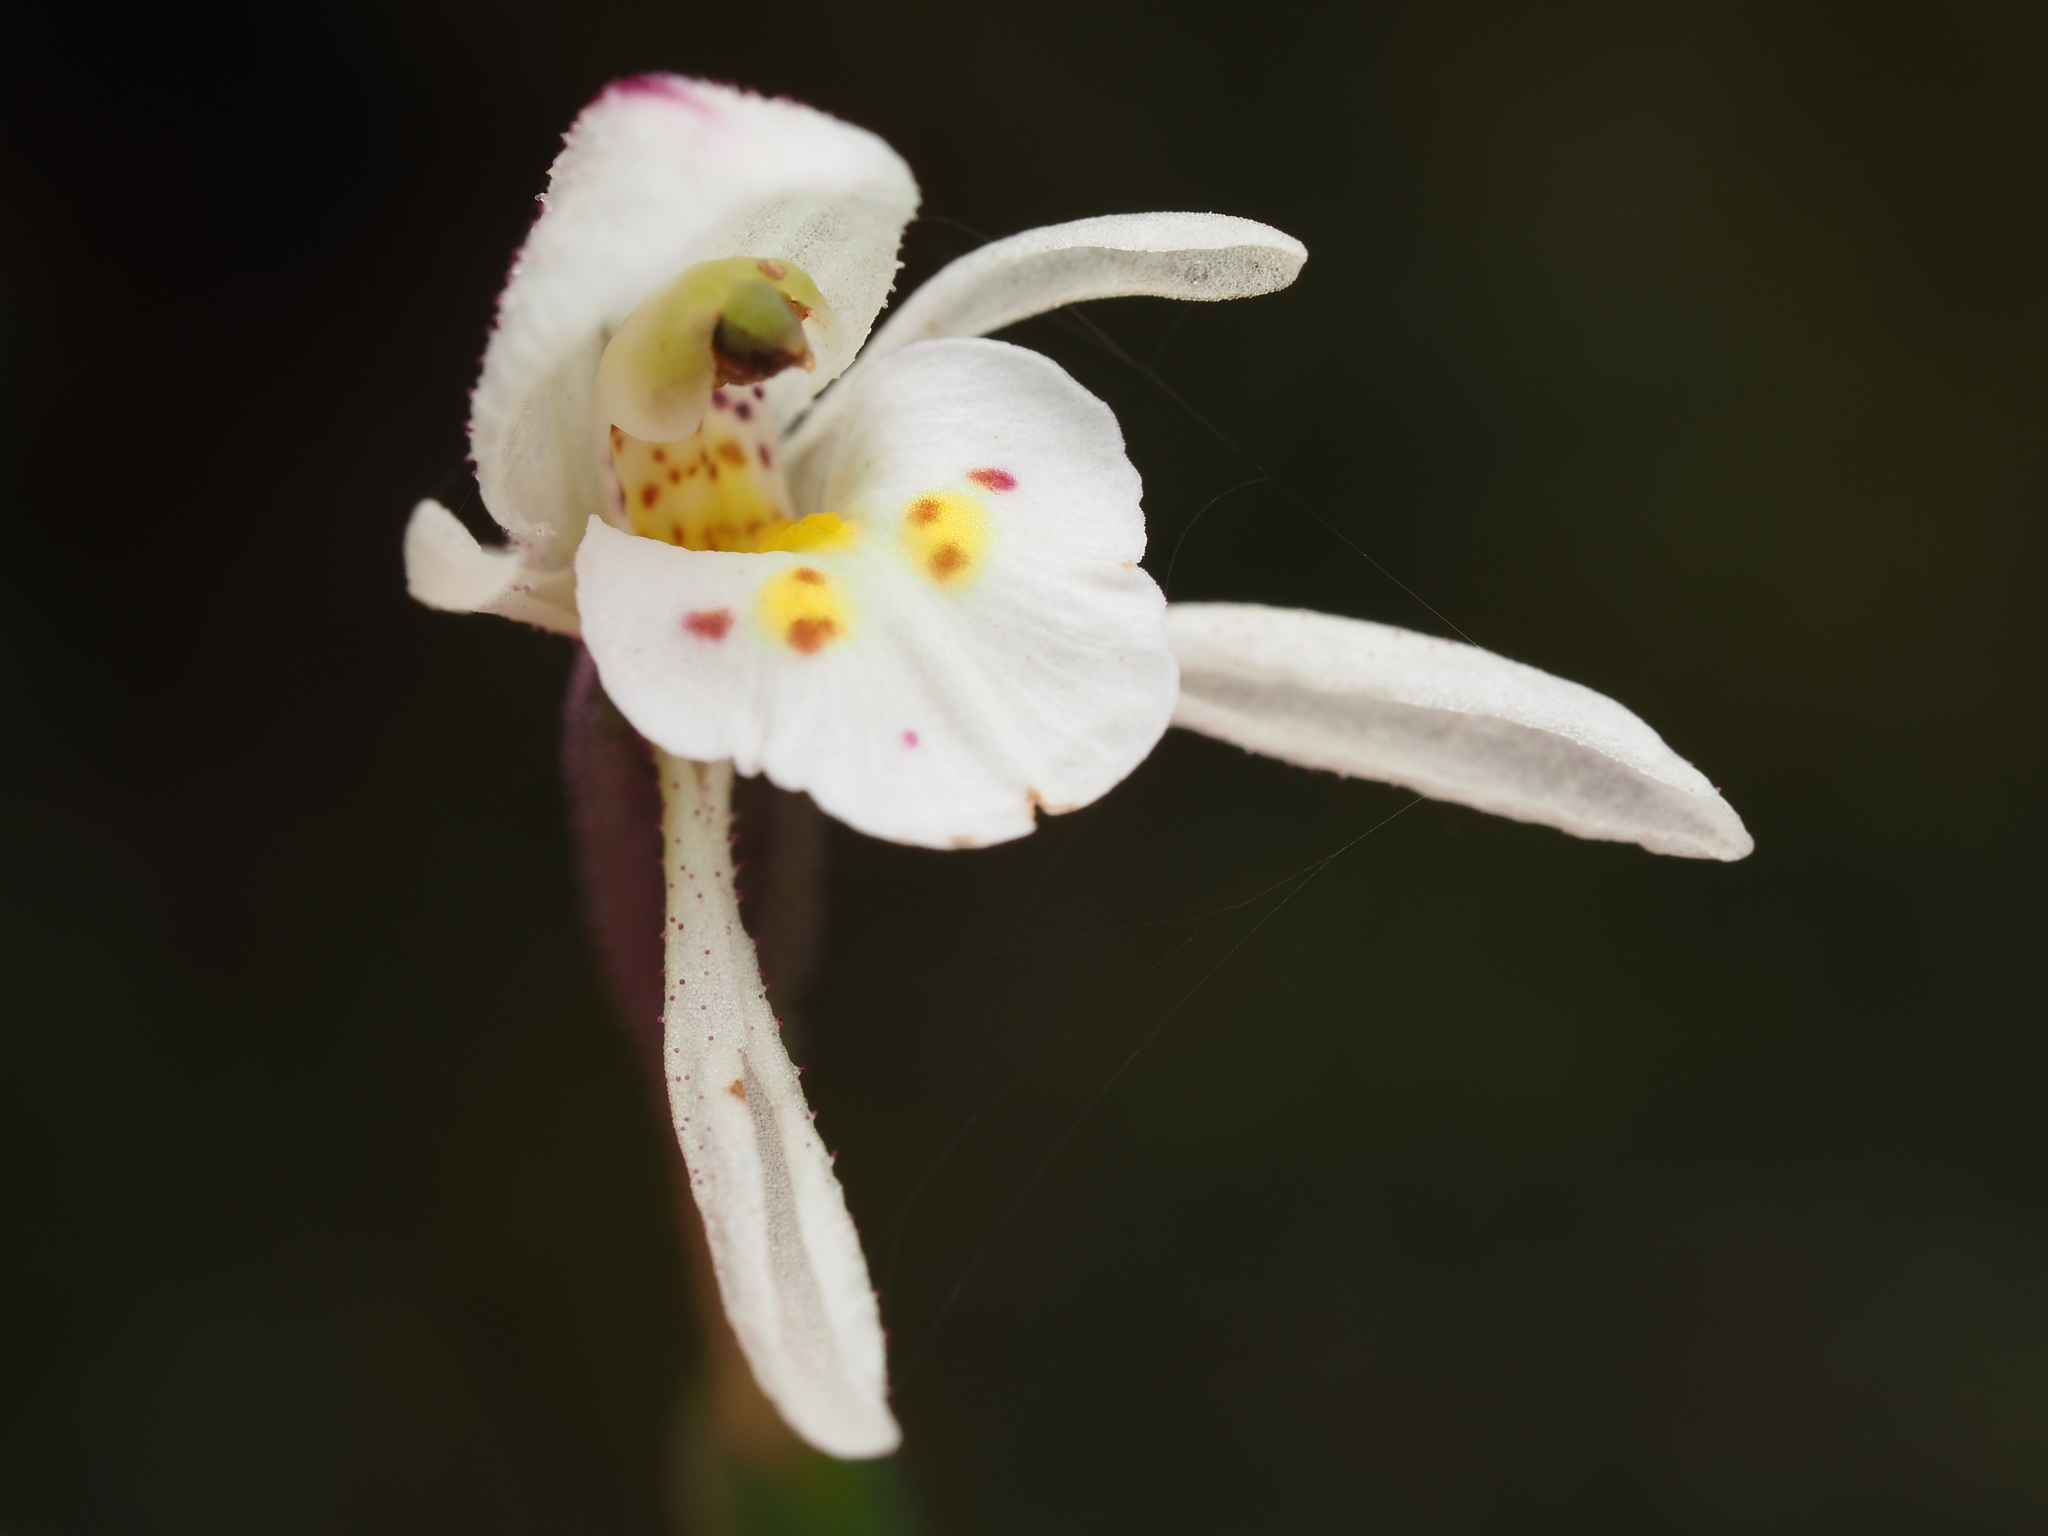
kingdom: Plantae
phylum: Tracheophyta
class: Liliopsida
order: Asparagales
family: Orchidaceae
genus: Aporostylis
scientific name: Aporostylis bifolia
